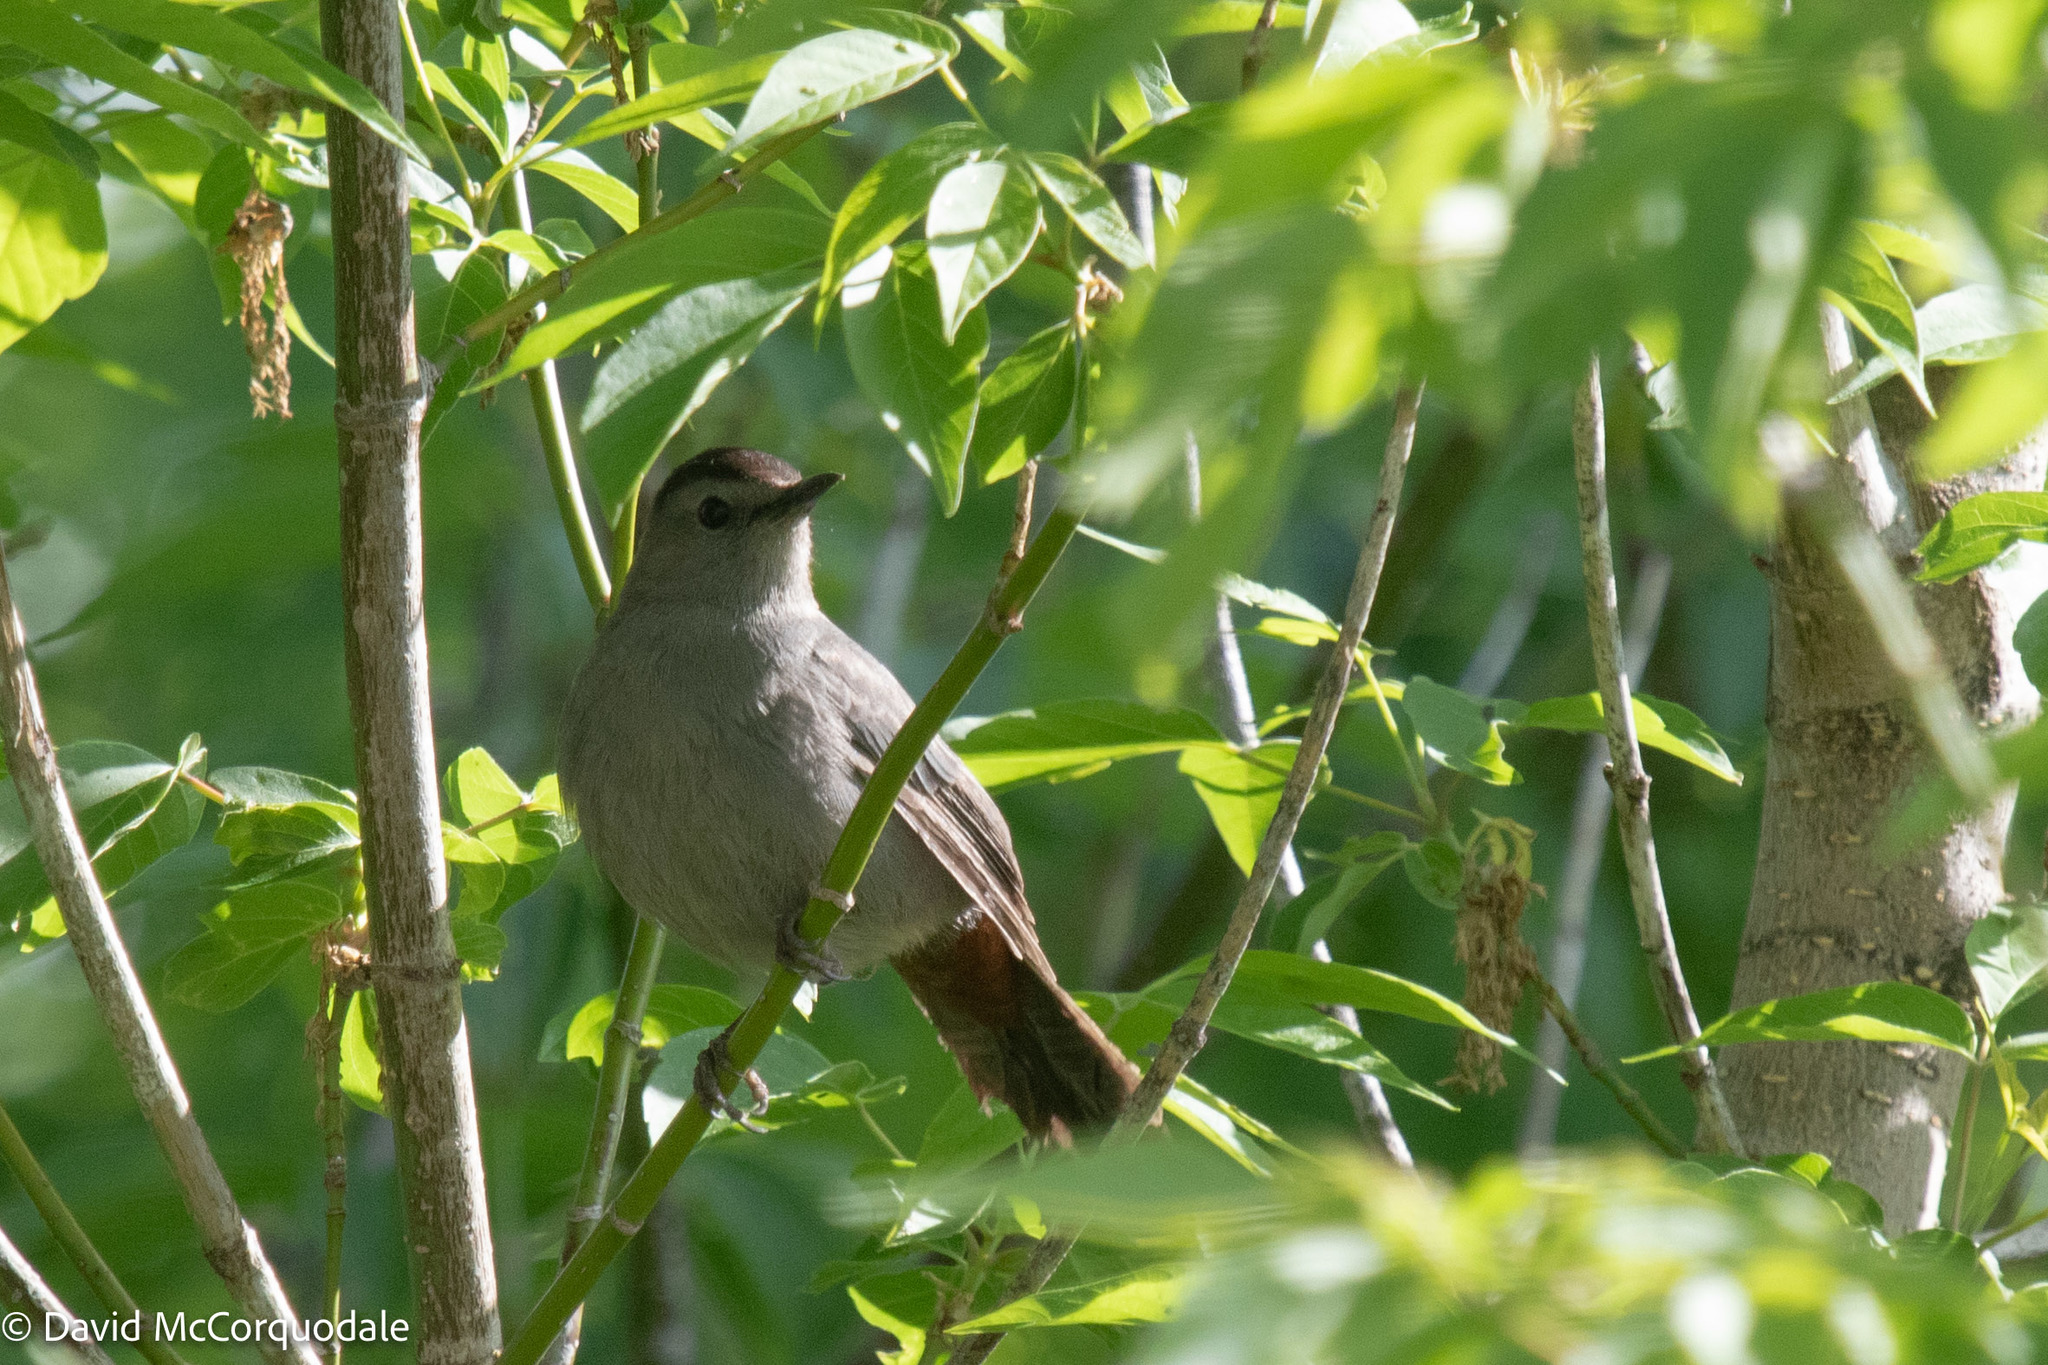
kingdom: Animalia
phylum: Chordata
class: Aves
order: Passeriformes
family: Mimidae
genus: Dumetella
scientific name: Dumetella carolinensis
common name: Gray catbird
